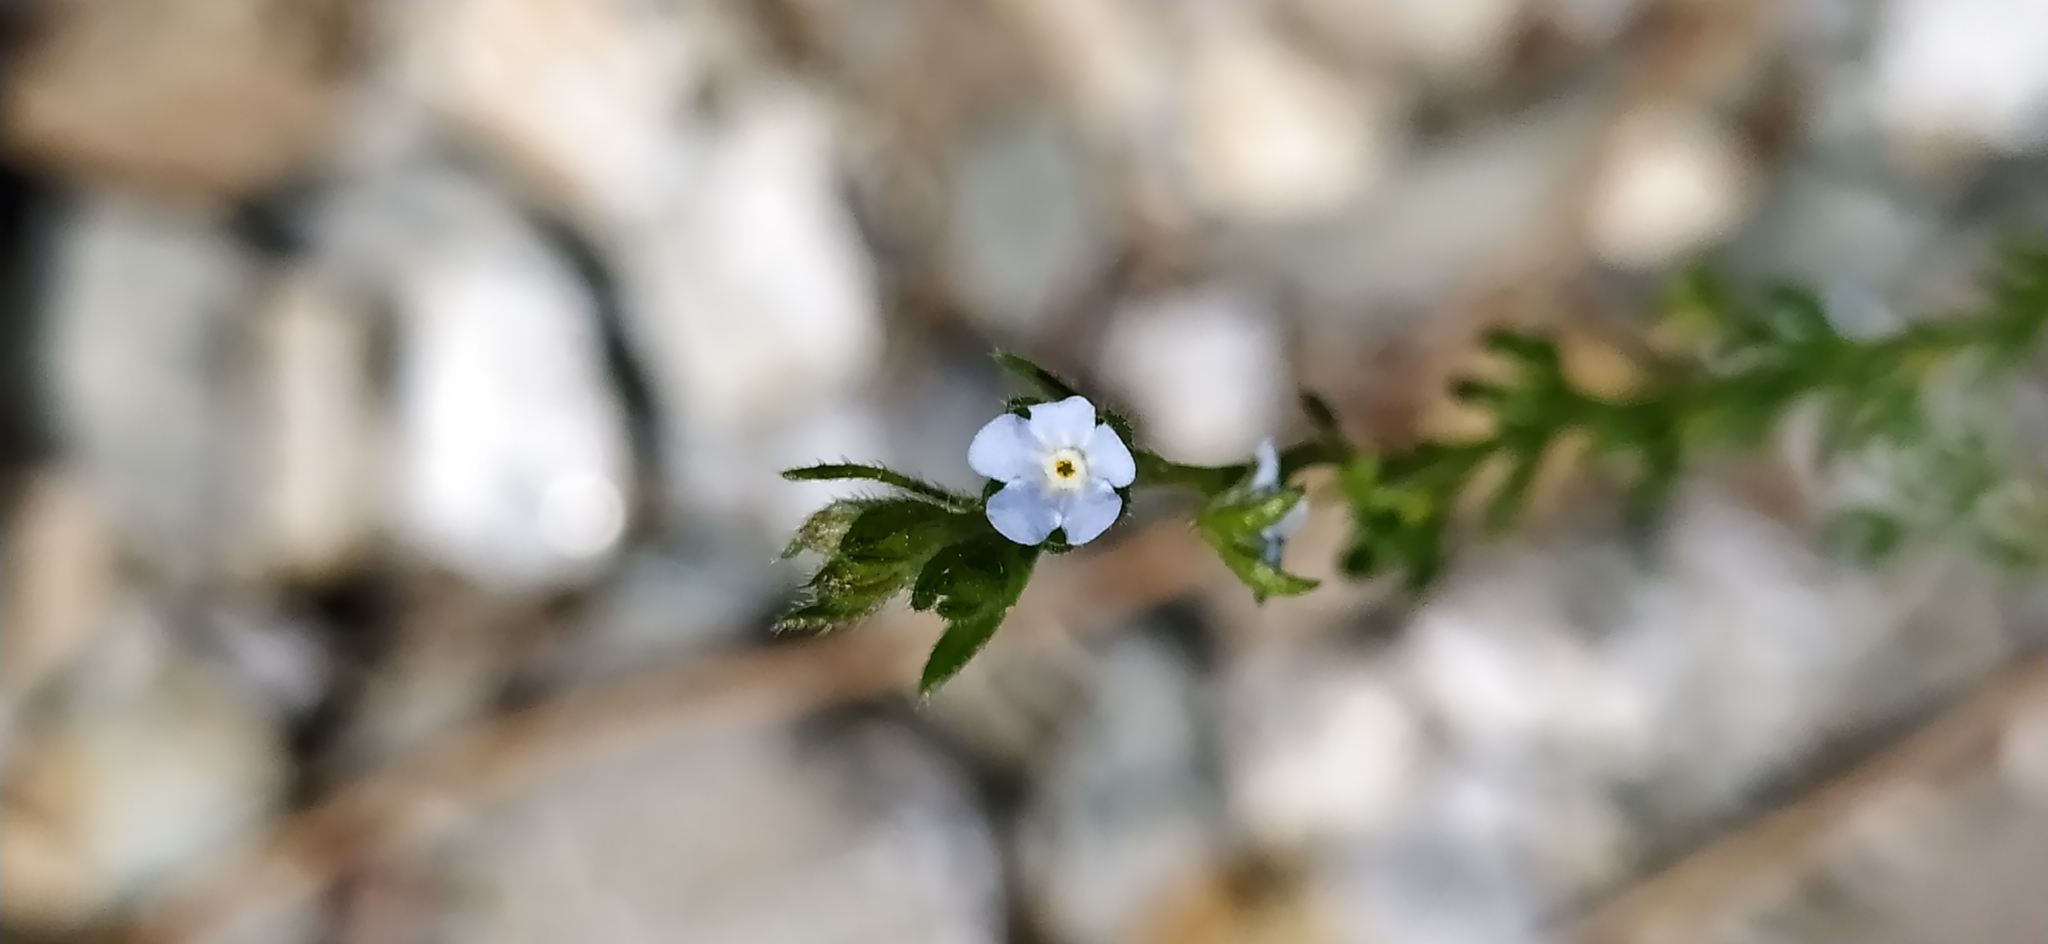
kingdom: Plantae
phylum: Tracheophyta
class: Magnoliopsida
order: Boraginales
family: Boraginaceae
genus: Lappula
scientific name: Lappula squarrosa
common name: European stickseed
